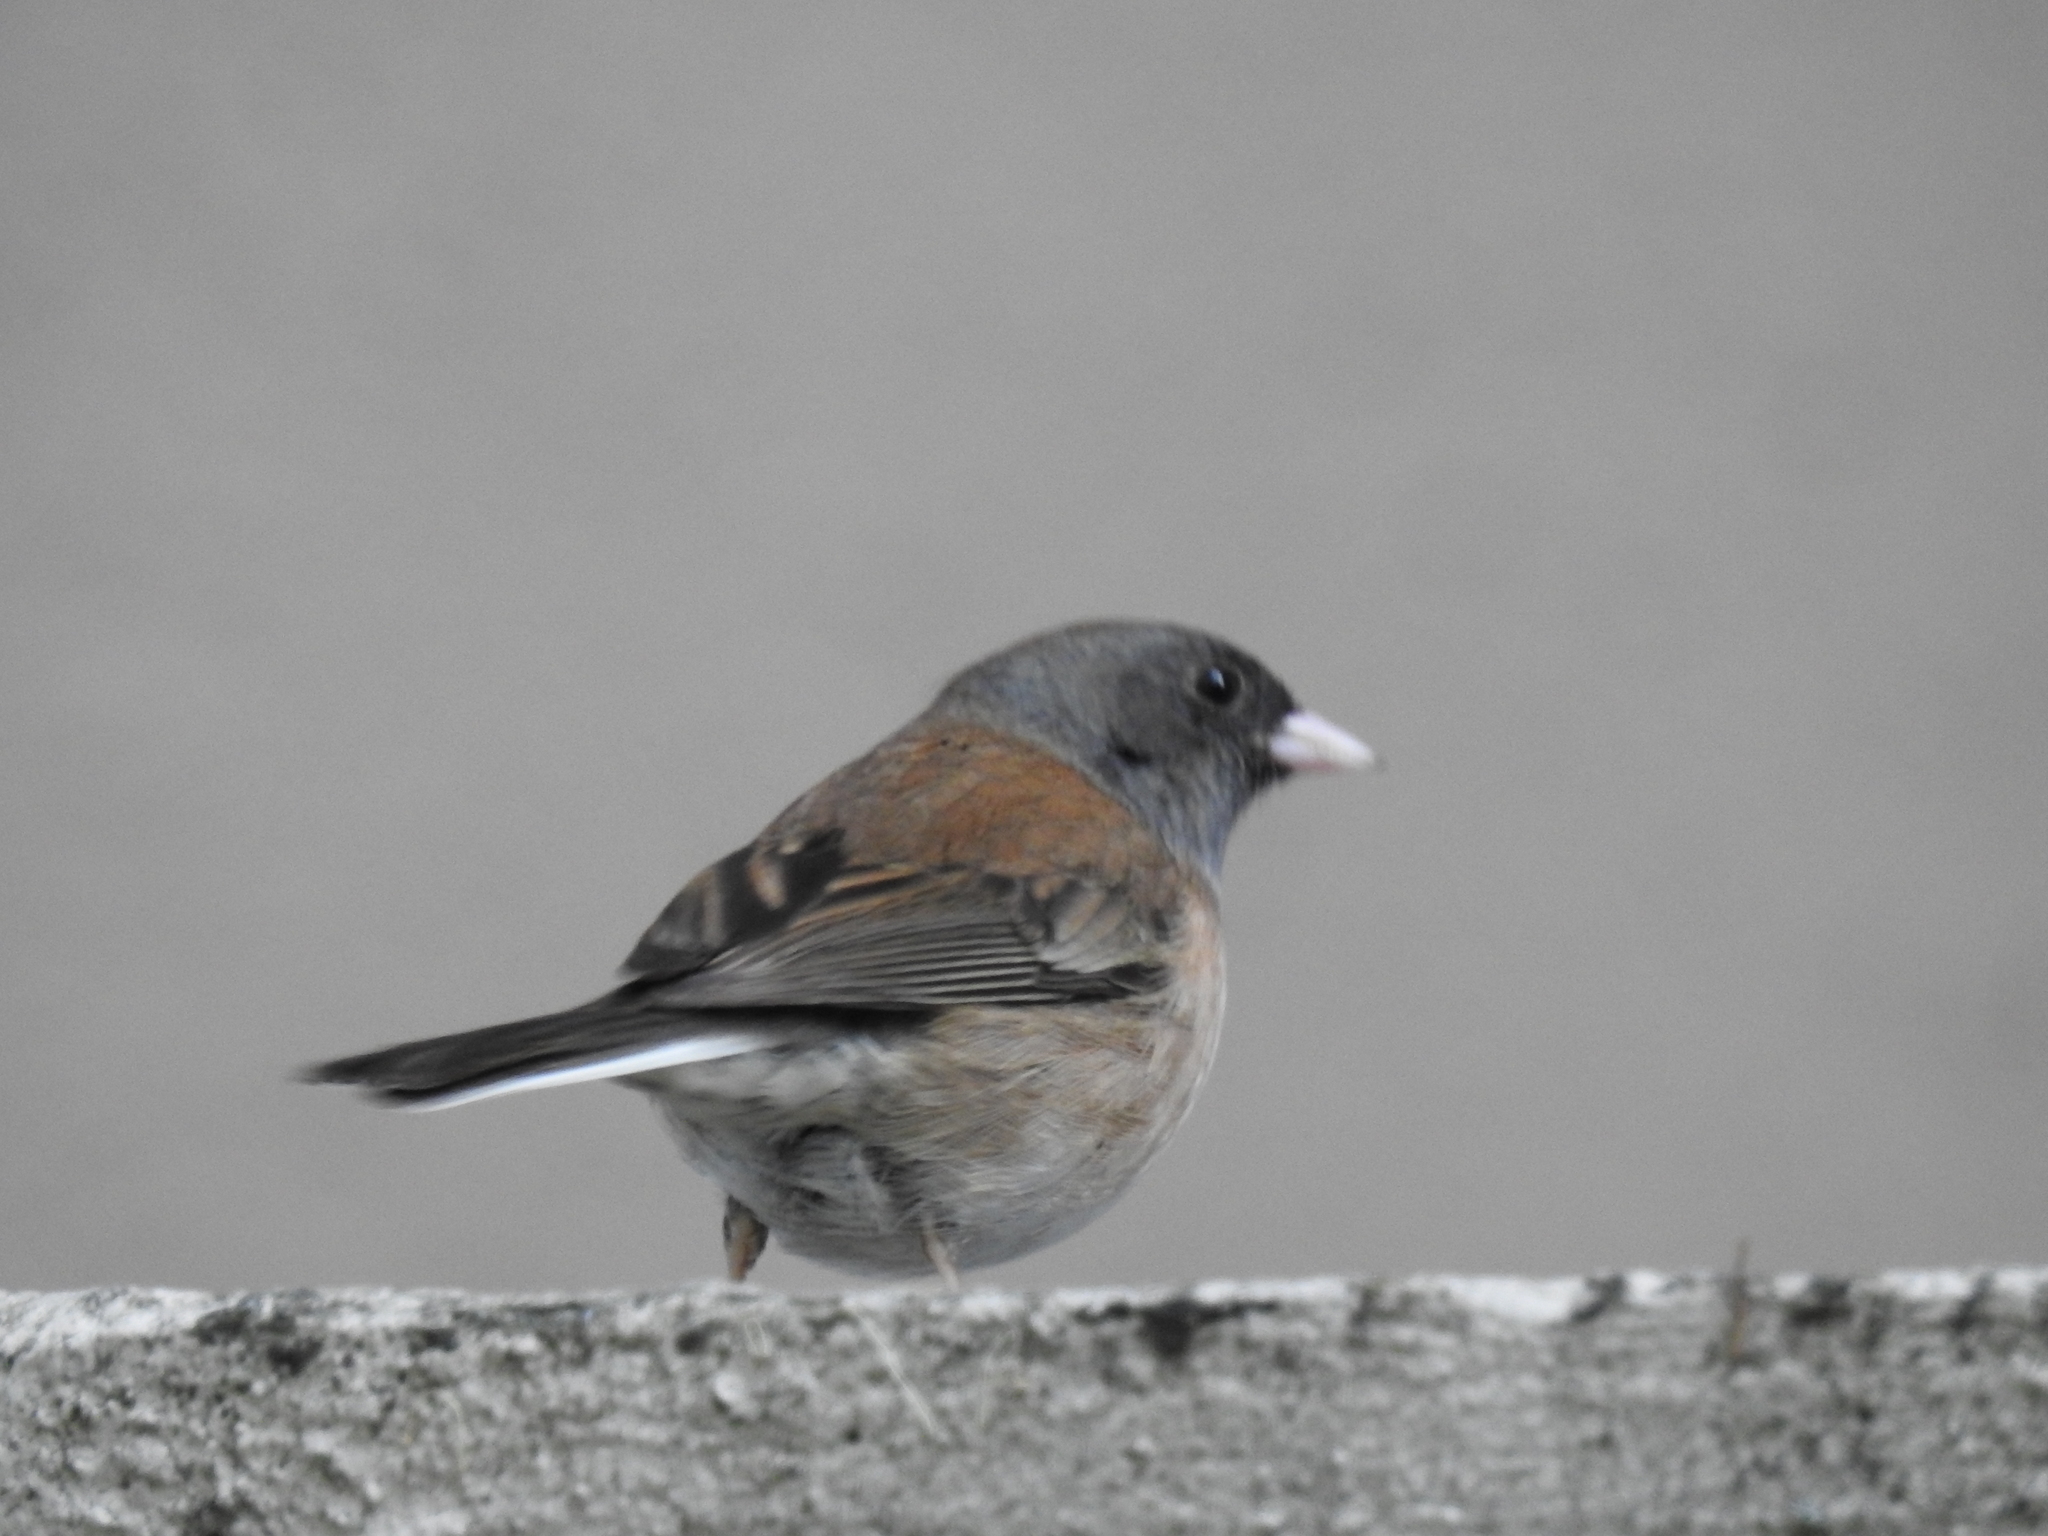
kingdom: Animalia
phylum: Chordata
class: Aves
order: Passeriformes
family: Passerellidae
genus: Junco
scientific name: Junco hyemalis
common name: Dark-eyed junco
